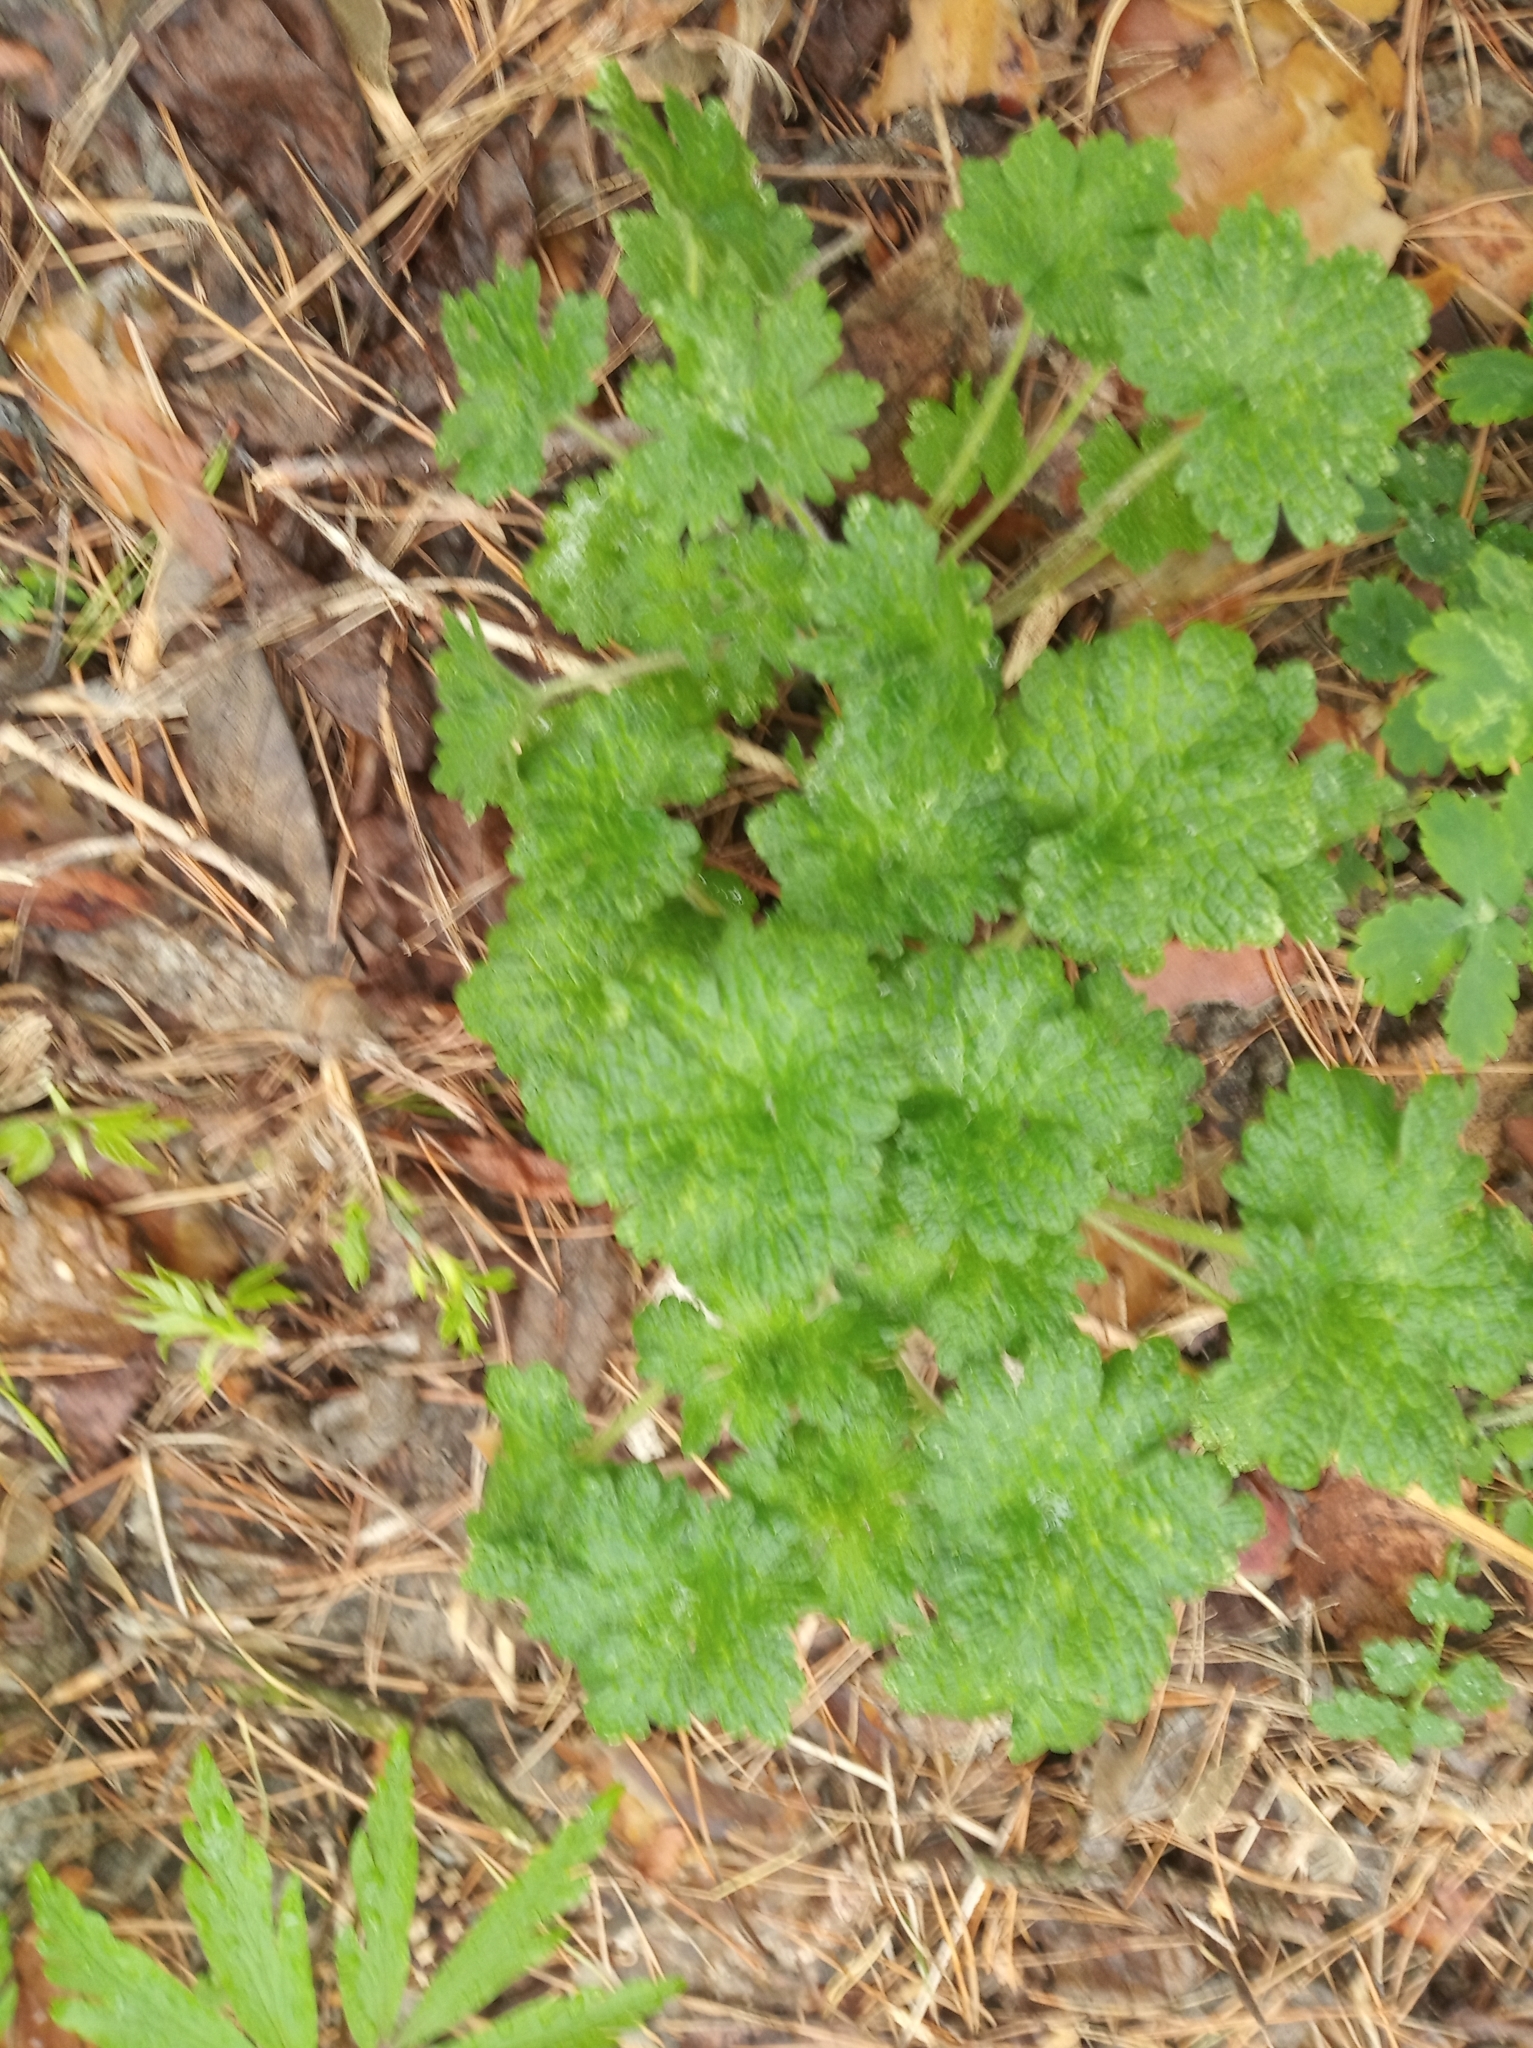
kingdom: Plantae
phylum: Tracheophyta
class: Magnoliopsida
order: Lamiales
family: Lamiaceae
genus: Leonurus
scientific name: Leonurus quinquelobatus
